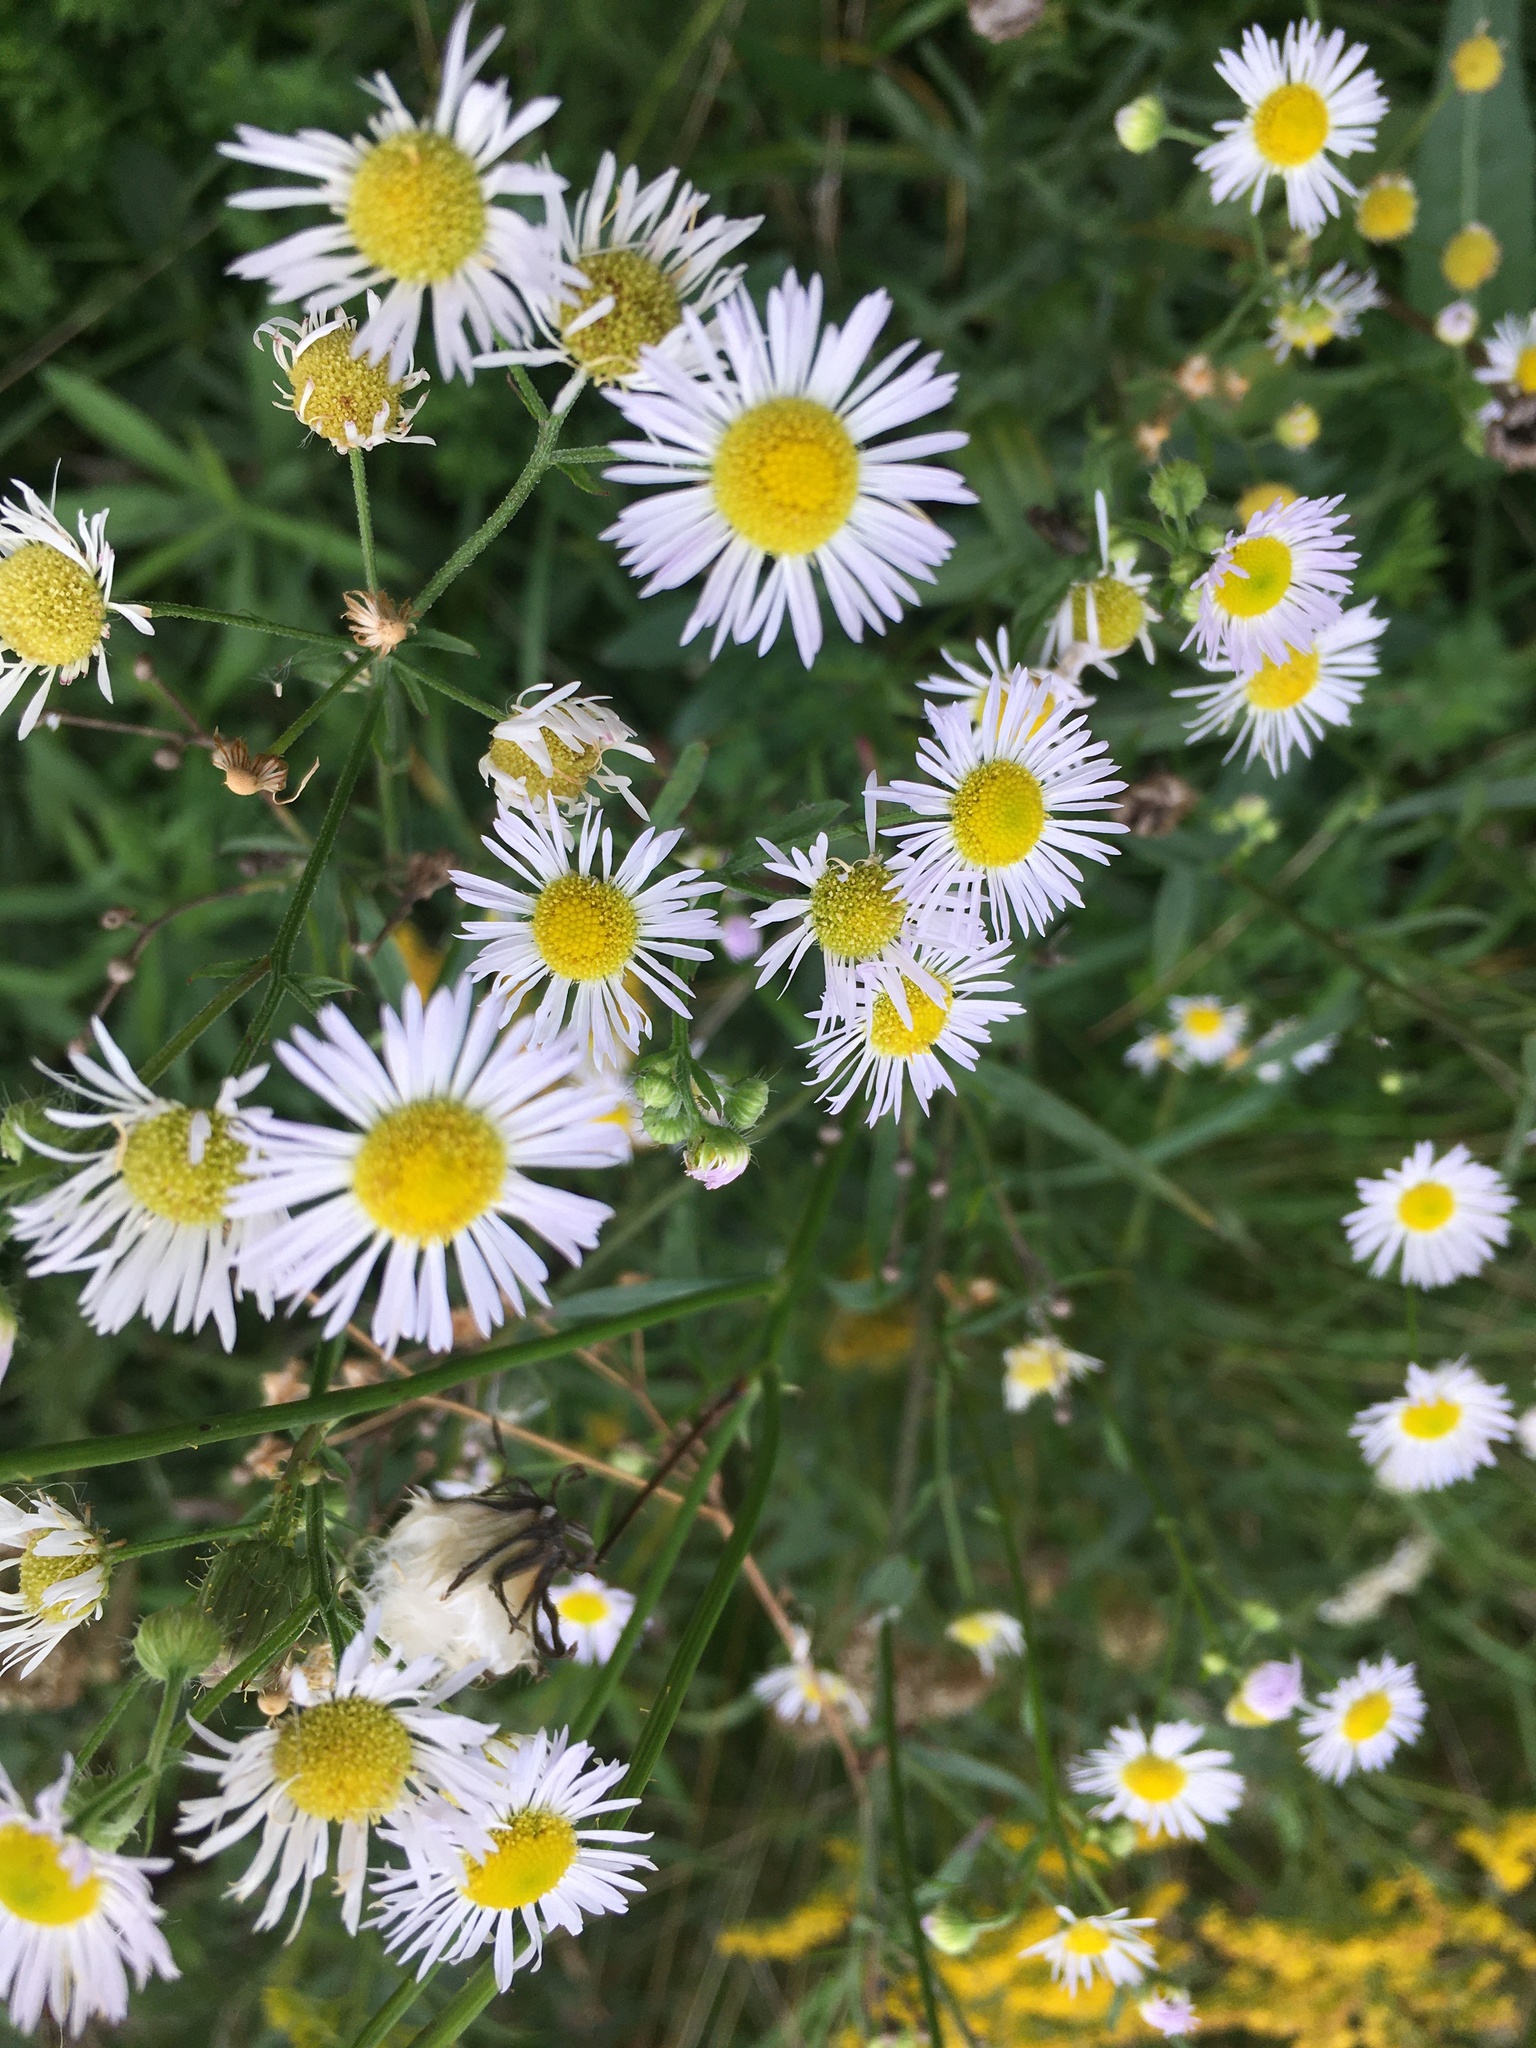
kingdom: Plantae
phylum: Tracheophyta
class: Magnoliopsida
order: Asterales
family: Asteraceae
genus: Erigeron
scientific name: Erigeron strigosus
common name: Common eastern fleabane
